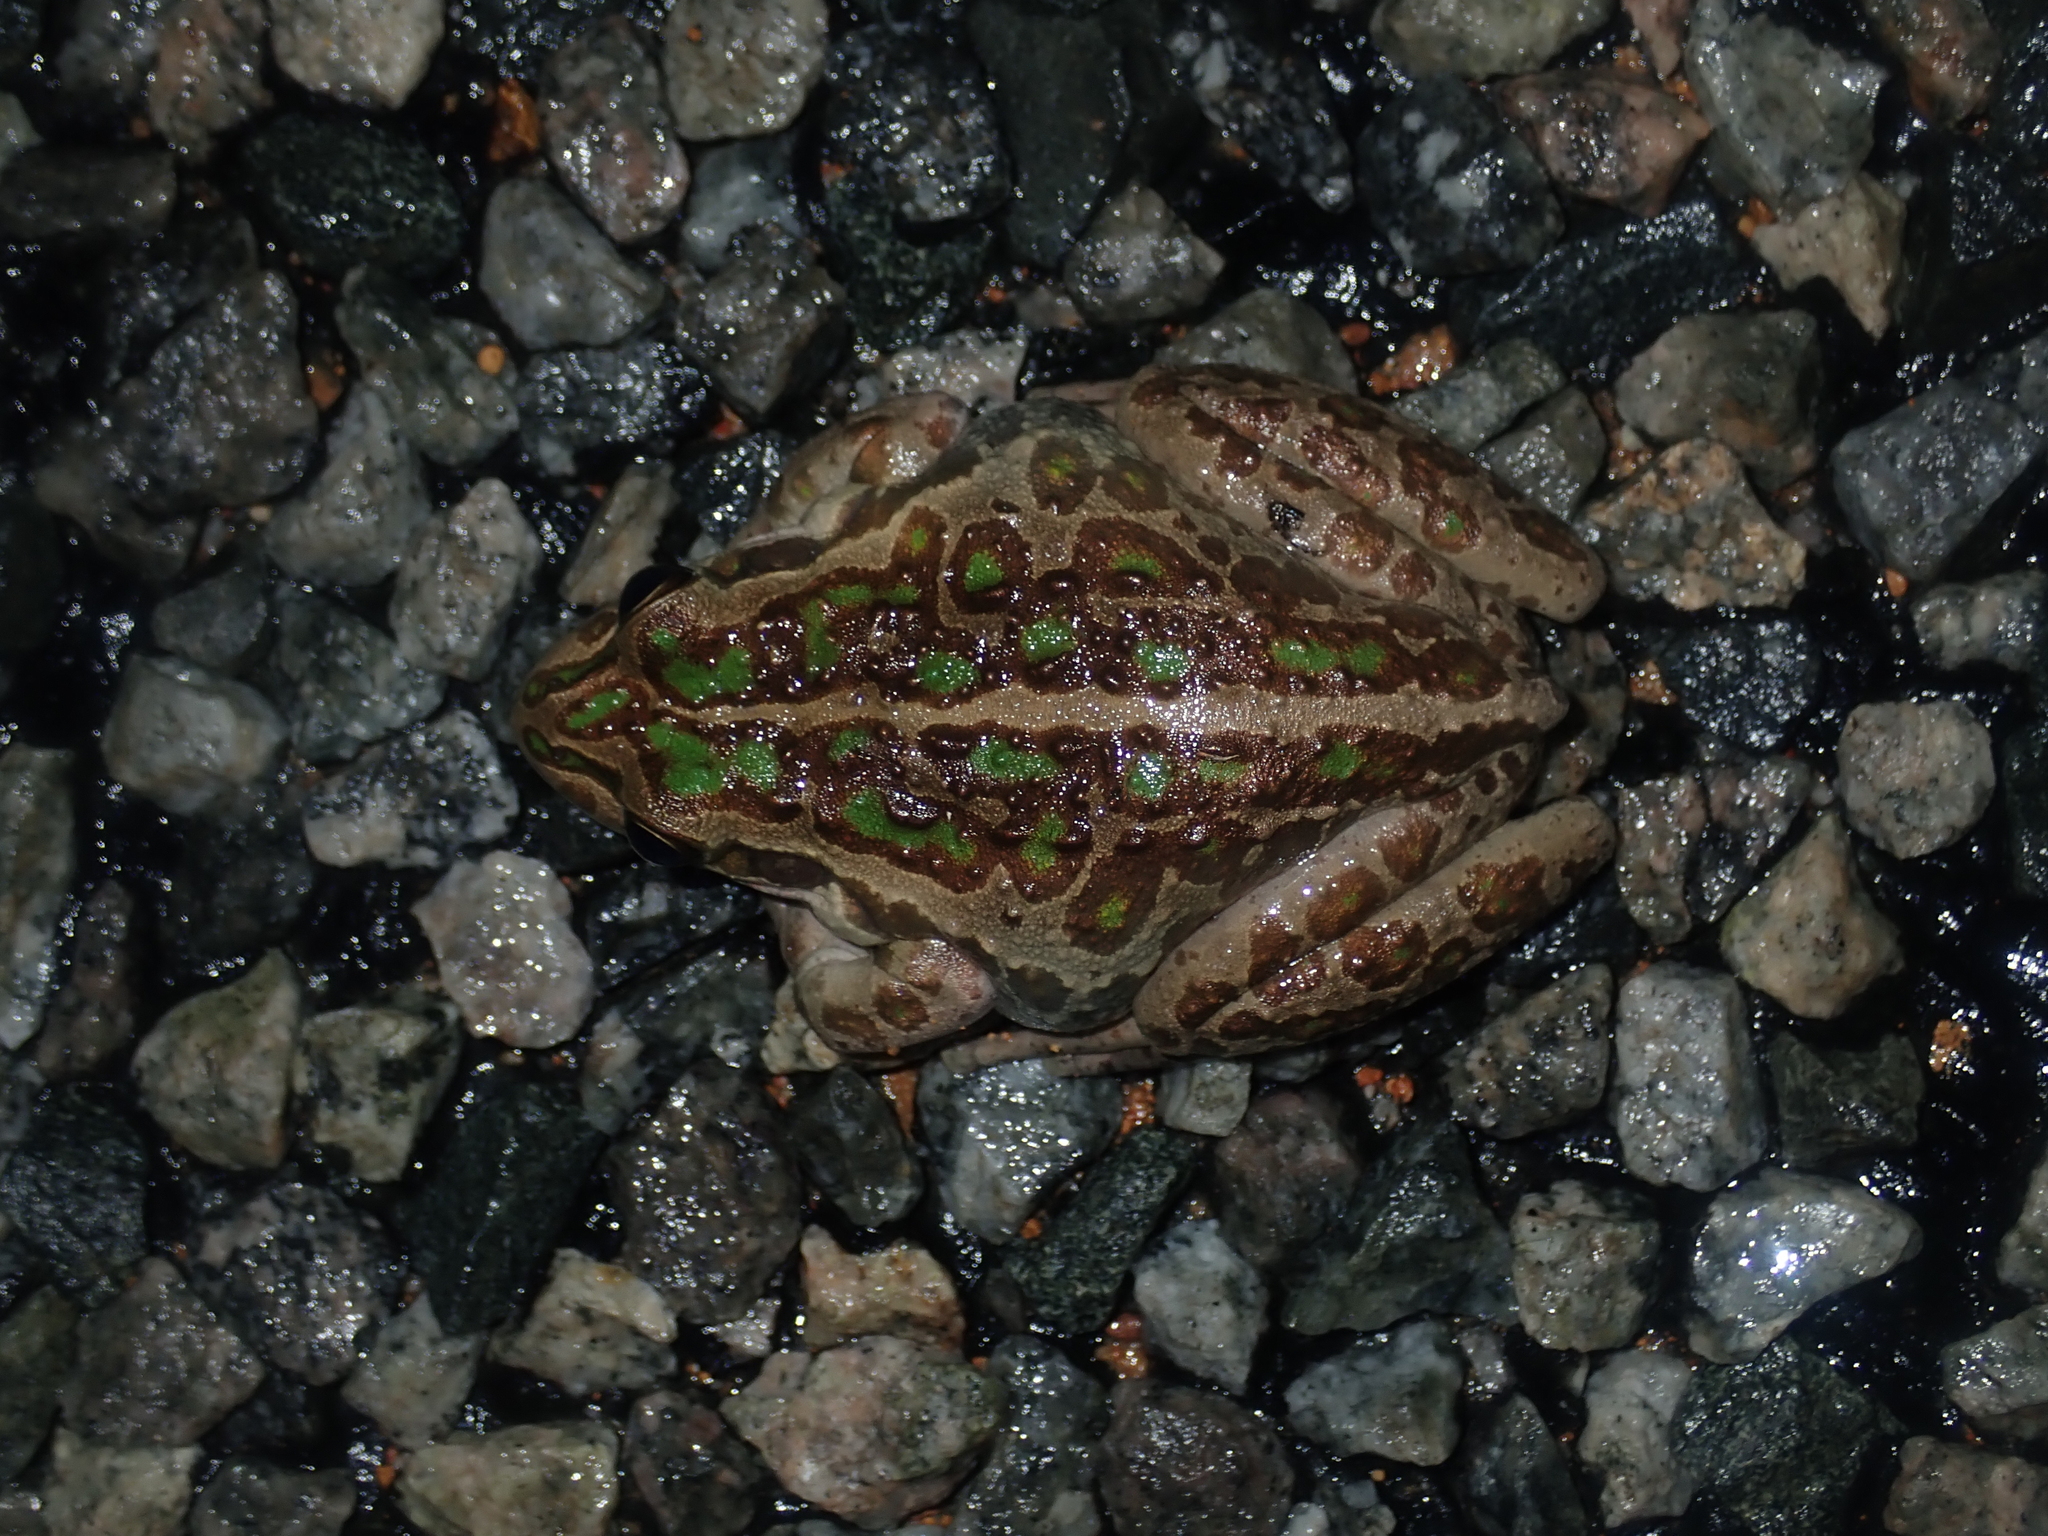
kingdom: Animalia
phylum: Chordata
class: Amphibia
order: Anura
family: Pelodryadidae
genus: Ranoidea
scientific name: Ranoidea moorei
